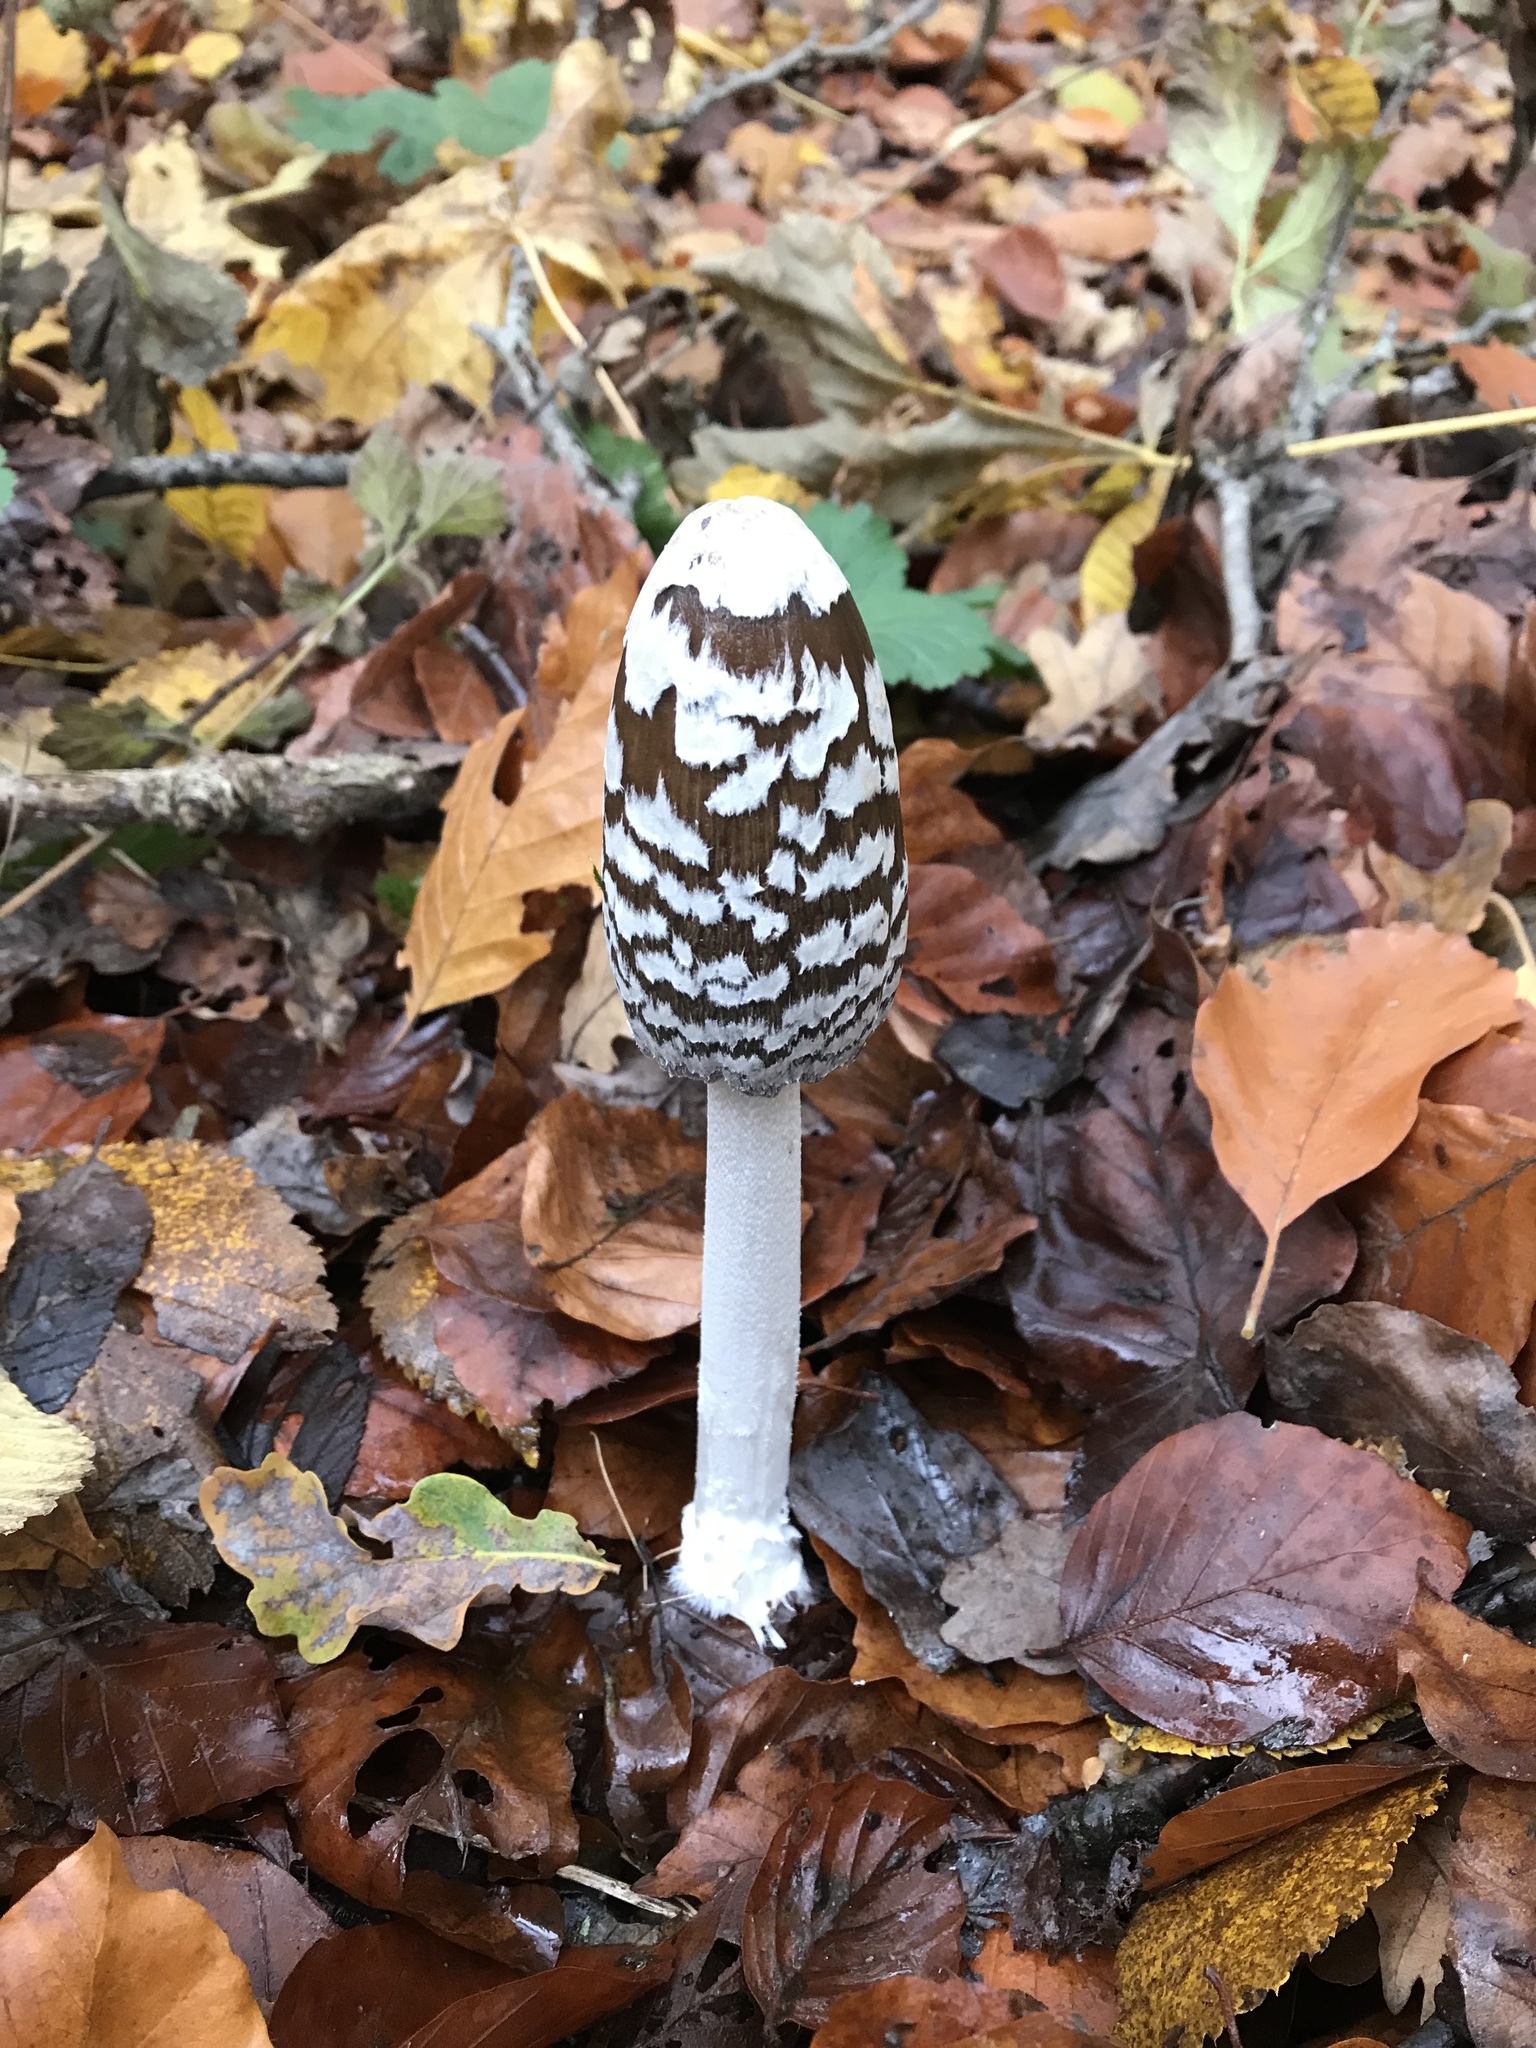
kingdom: Fungi
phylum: Basidiomycota
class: Agaricomycetes
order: Agaricales
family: Psathyrellaceae
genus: Coprinopsis
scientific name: Coprinopsis picacea
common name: Magpie inkcap
